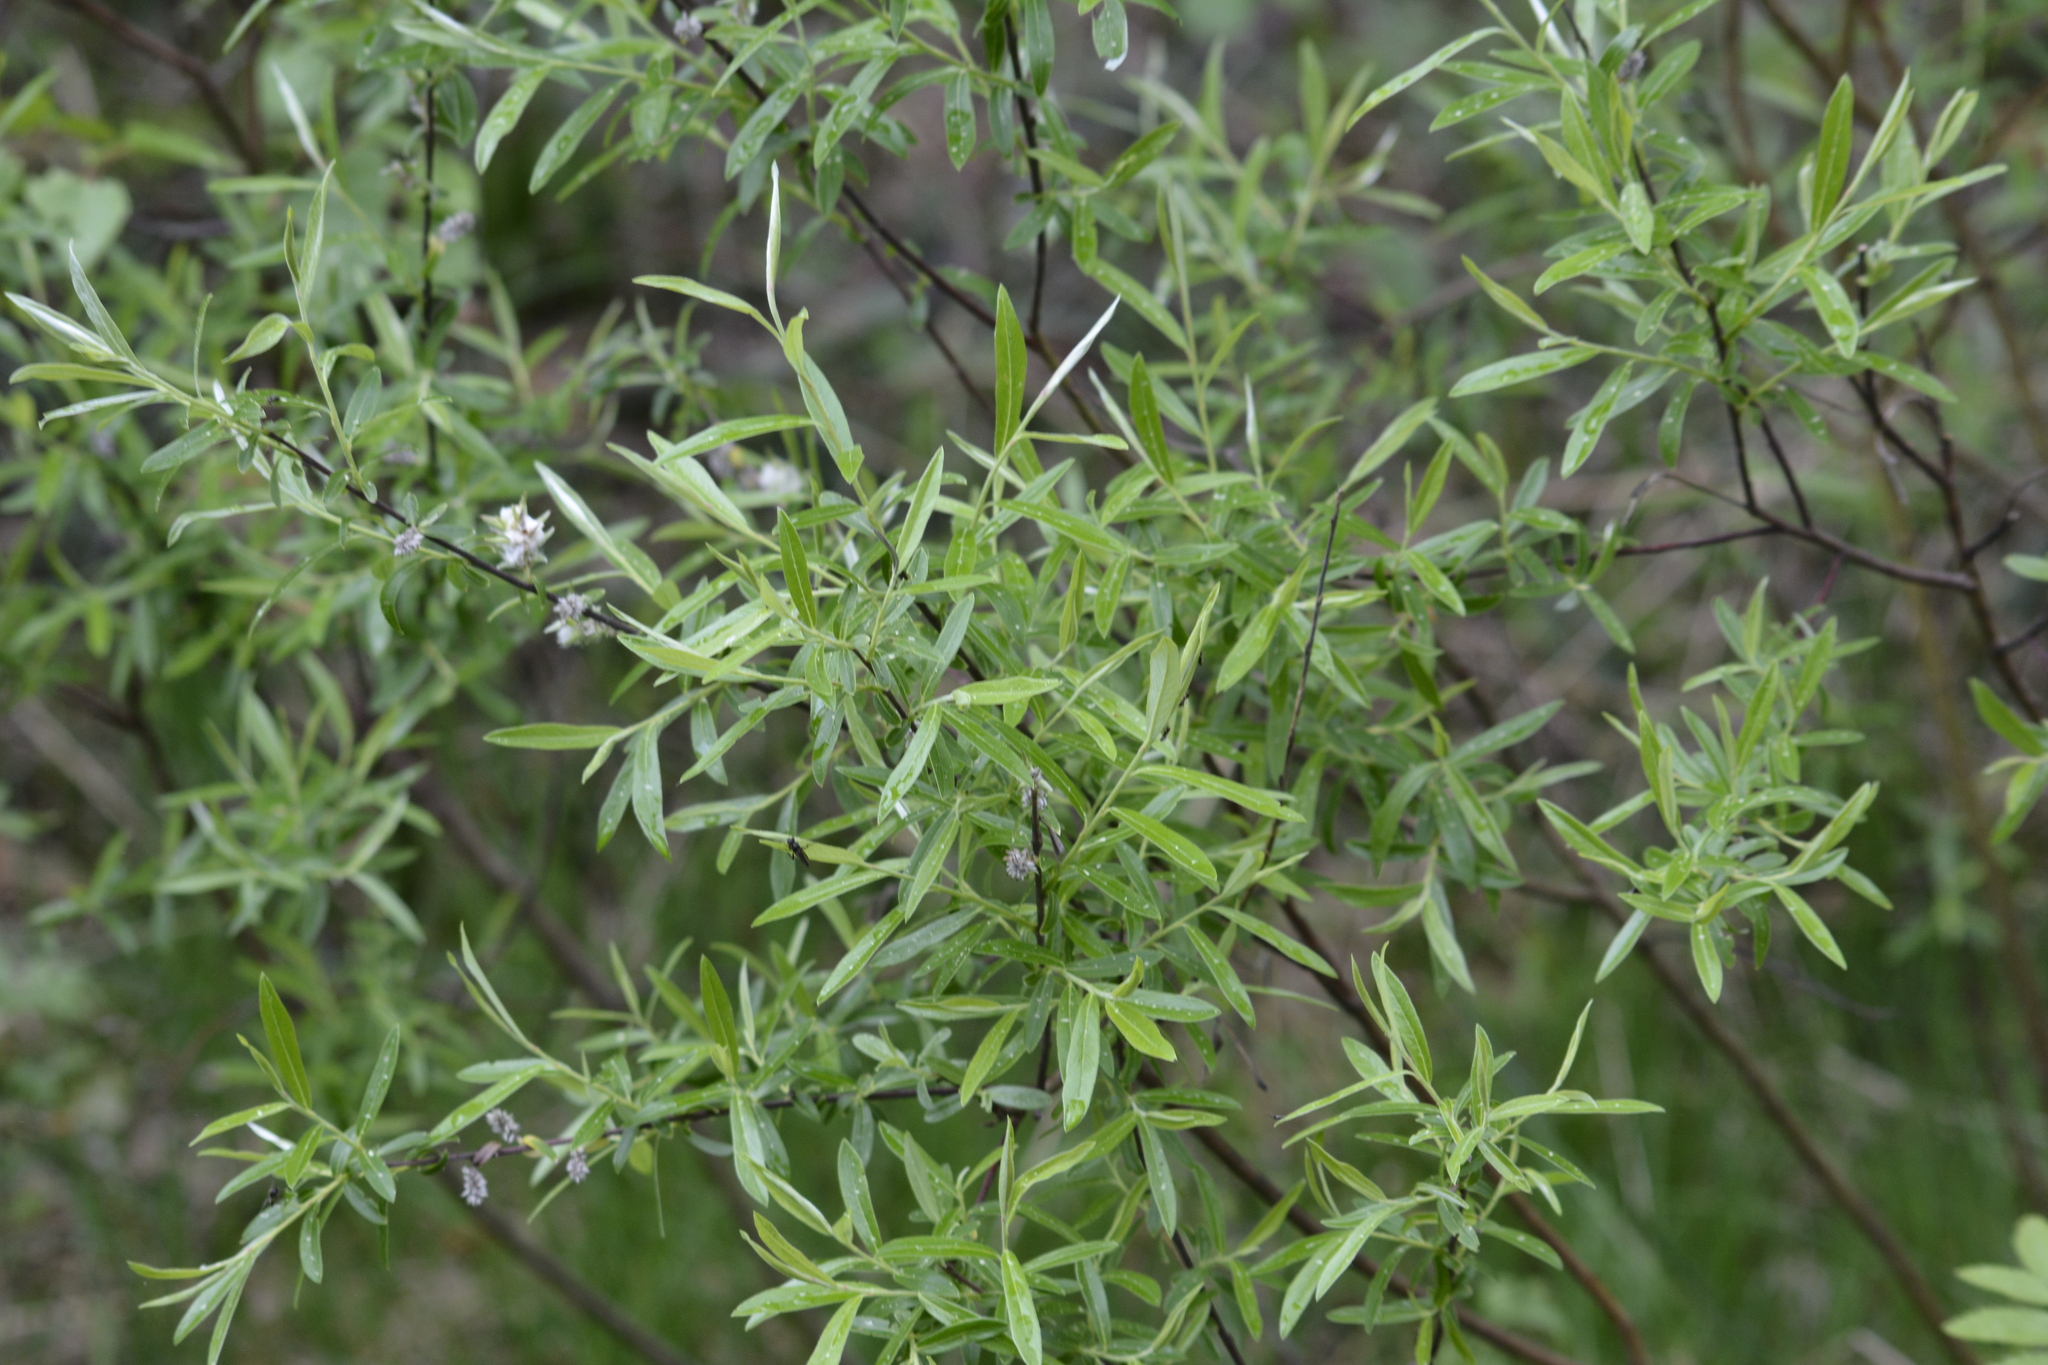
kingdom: Plantae
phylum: Tracheophyta
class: Magnoliopsida
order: Malpighiales
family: Salicaceae
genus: Salix
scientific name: Salix rosmarinifolia
